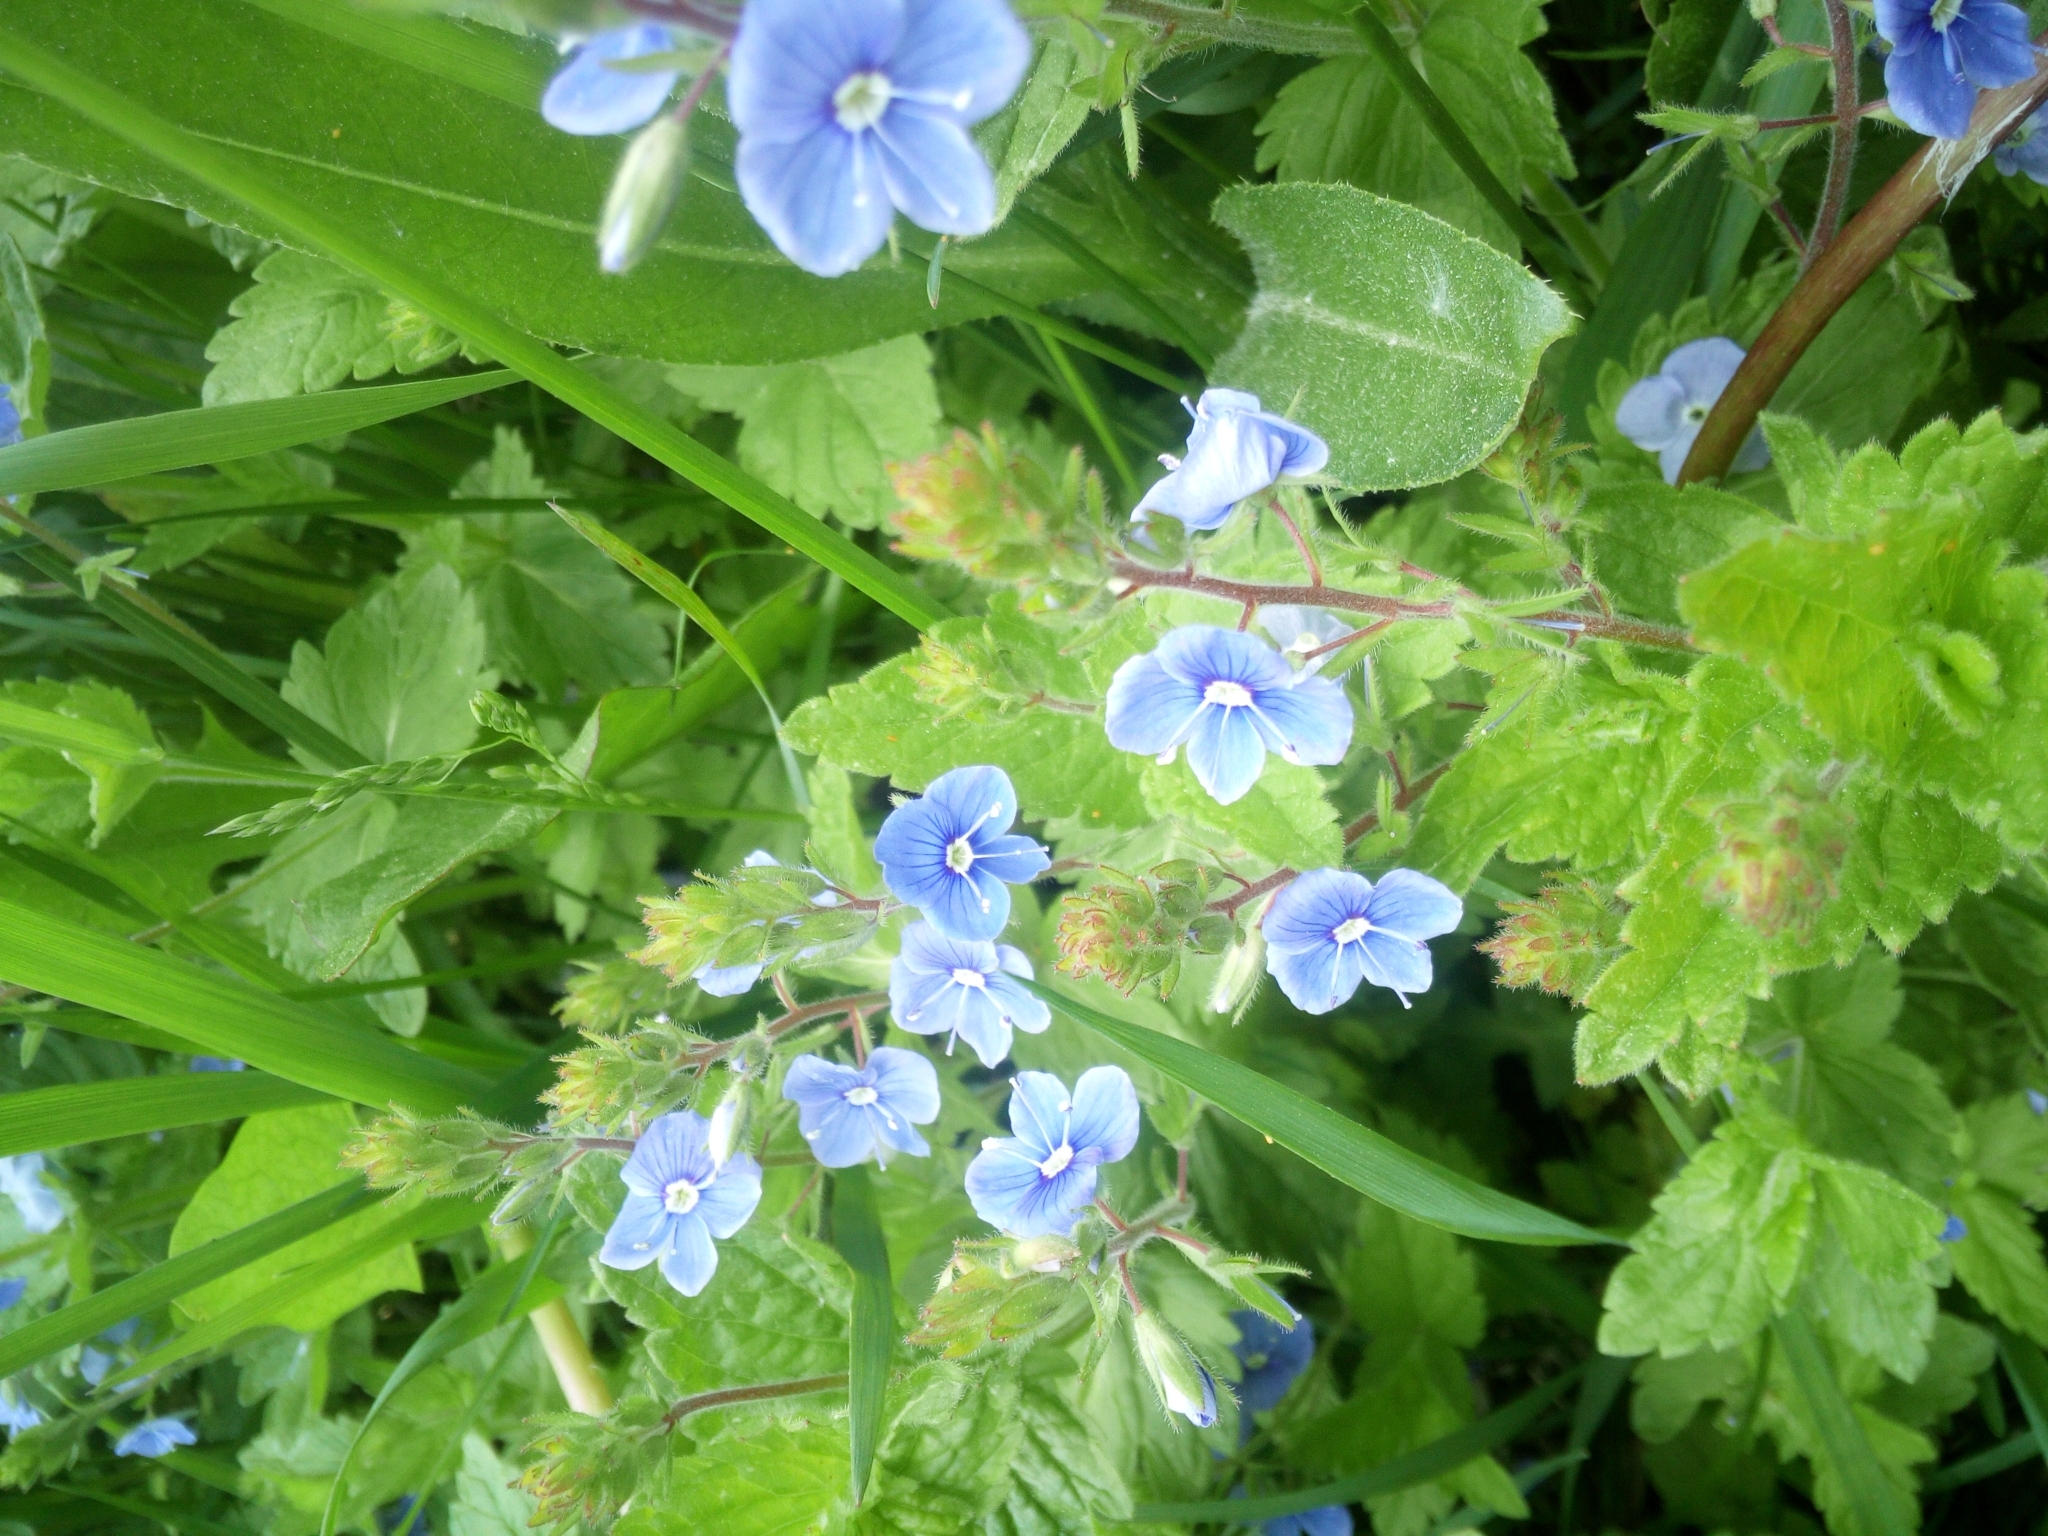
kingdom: Plantae
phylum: Tracheophyta
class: Magnoliopsida
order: Lamiales
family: Plantaginaceae
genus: Veronica
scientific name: Veronica chamaedrys
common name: Germander speedwell
